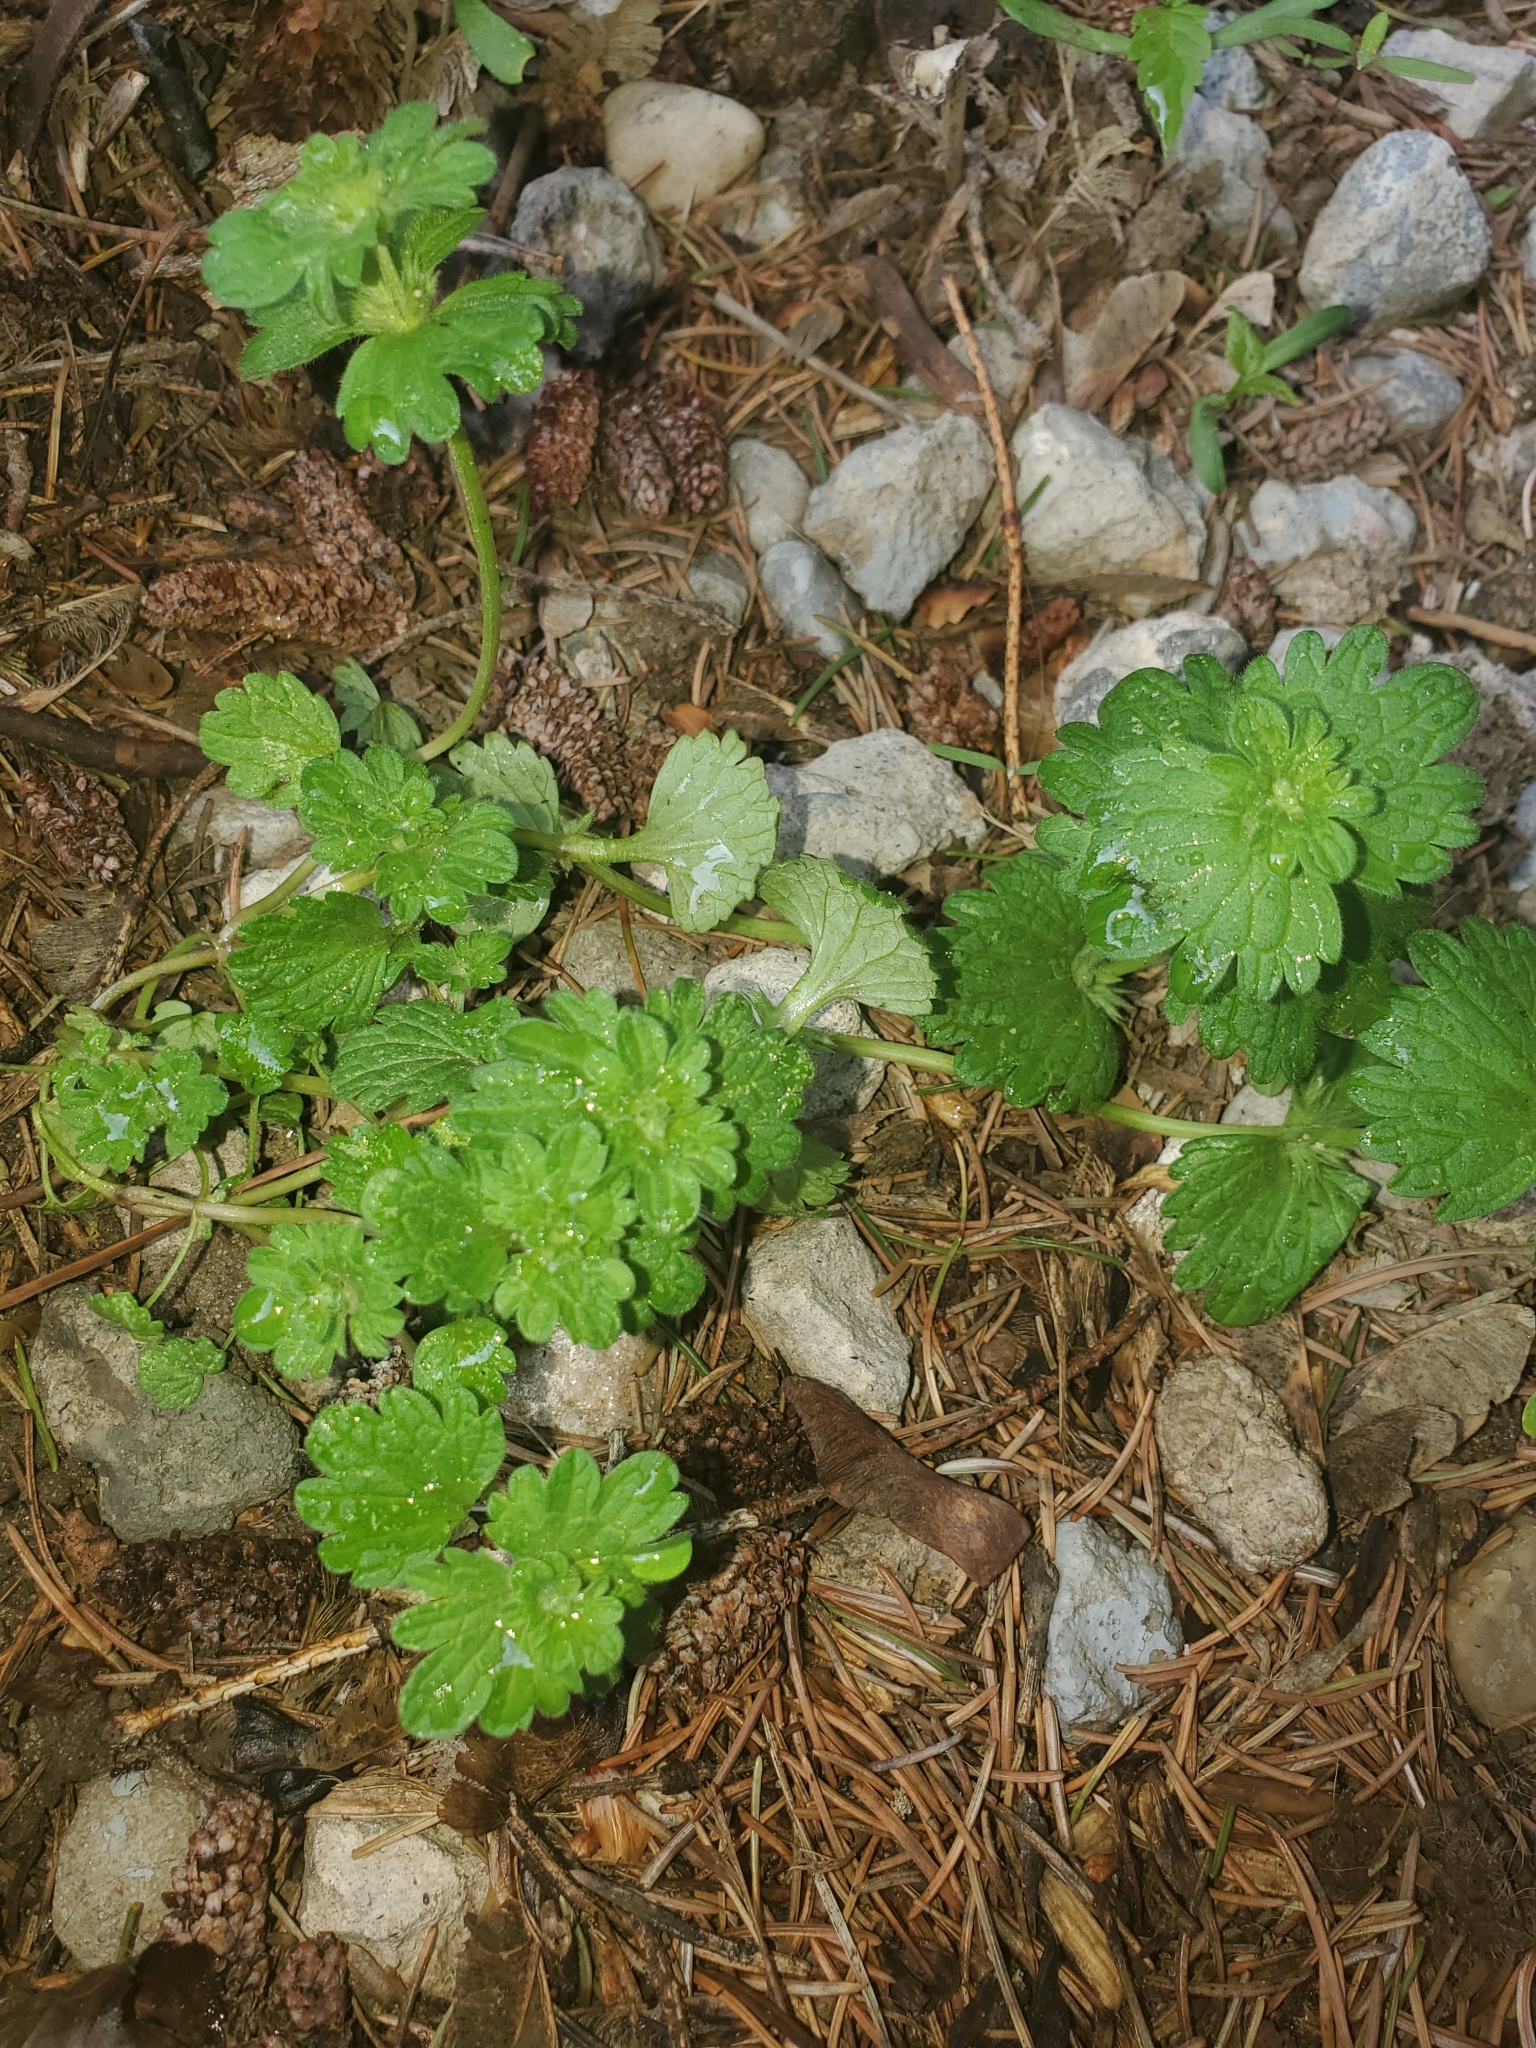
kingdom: Plantae
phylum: Tracheophyta
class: Magnoliopsida
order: Lamiales
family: Lamiaceae
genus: Lamium
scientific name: Lamium amplexicaule
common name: Henbit dead-nettle
